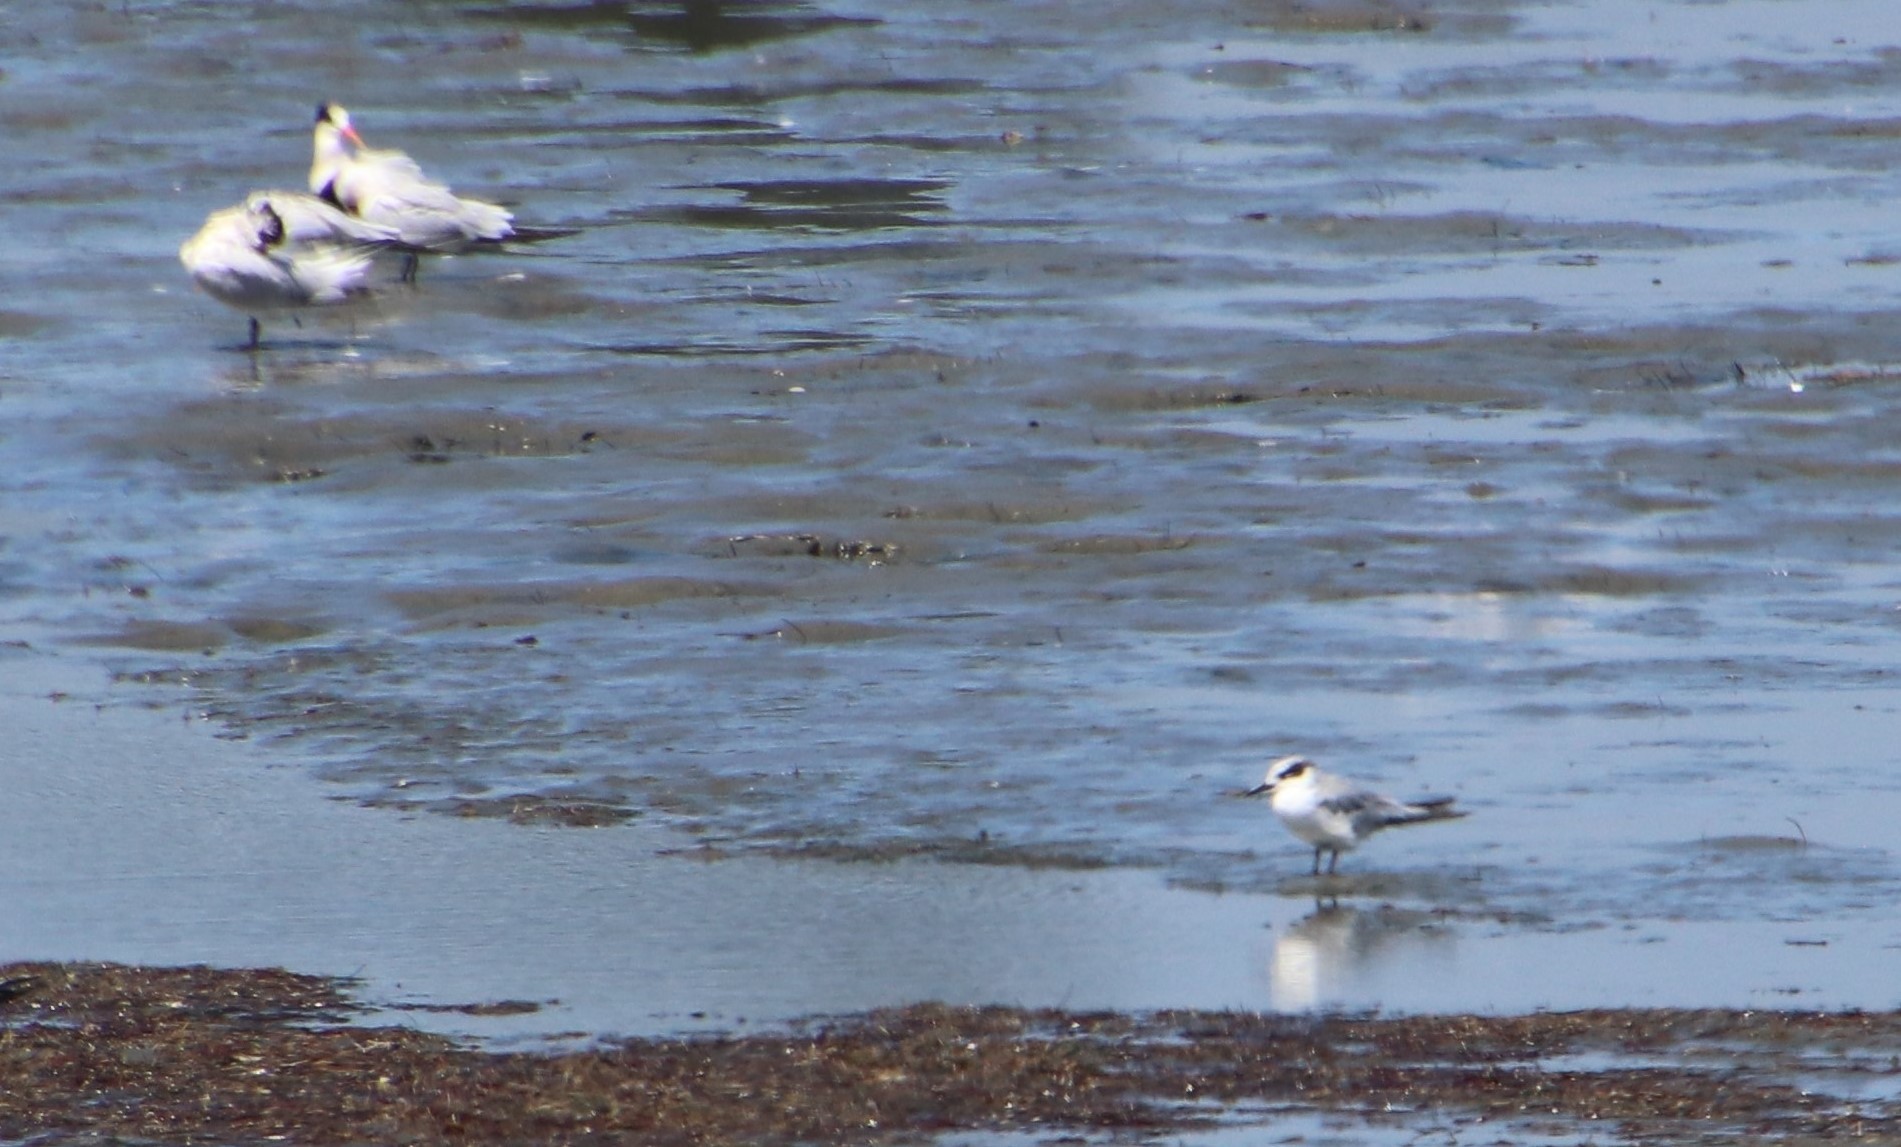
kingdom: Animalia
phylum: Chordata
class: Aves
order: Charadriiformes
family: Laridae
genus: Sterna
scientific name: Sterna forsteri
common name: Forster's tern
